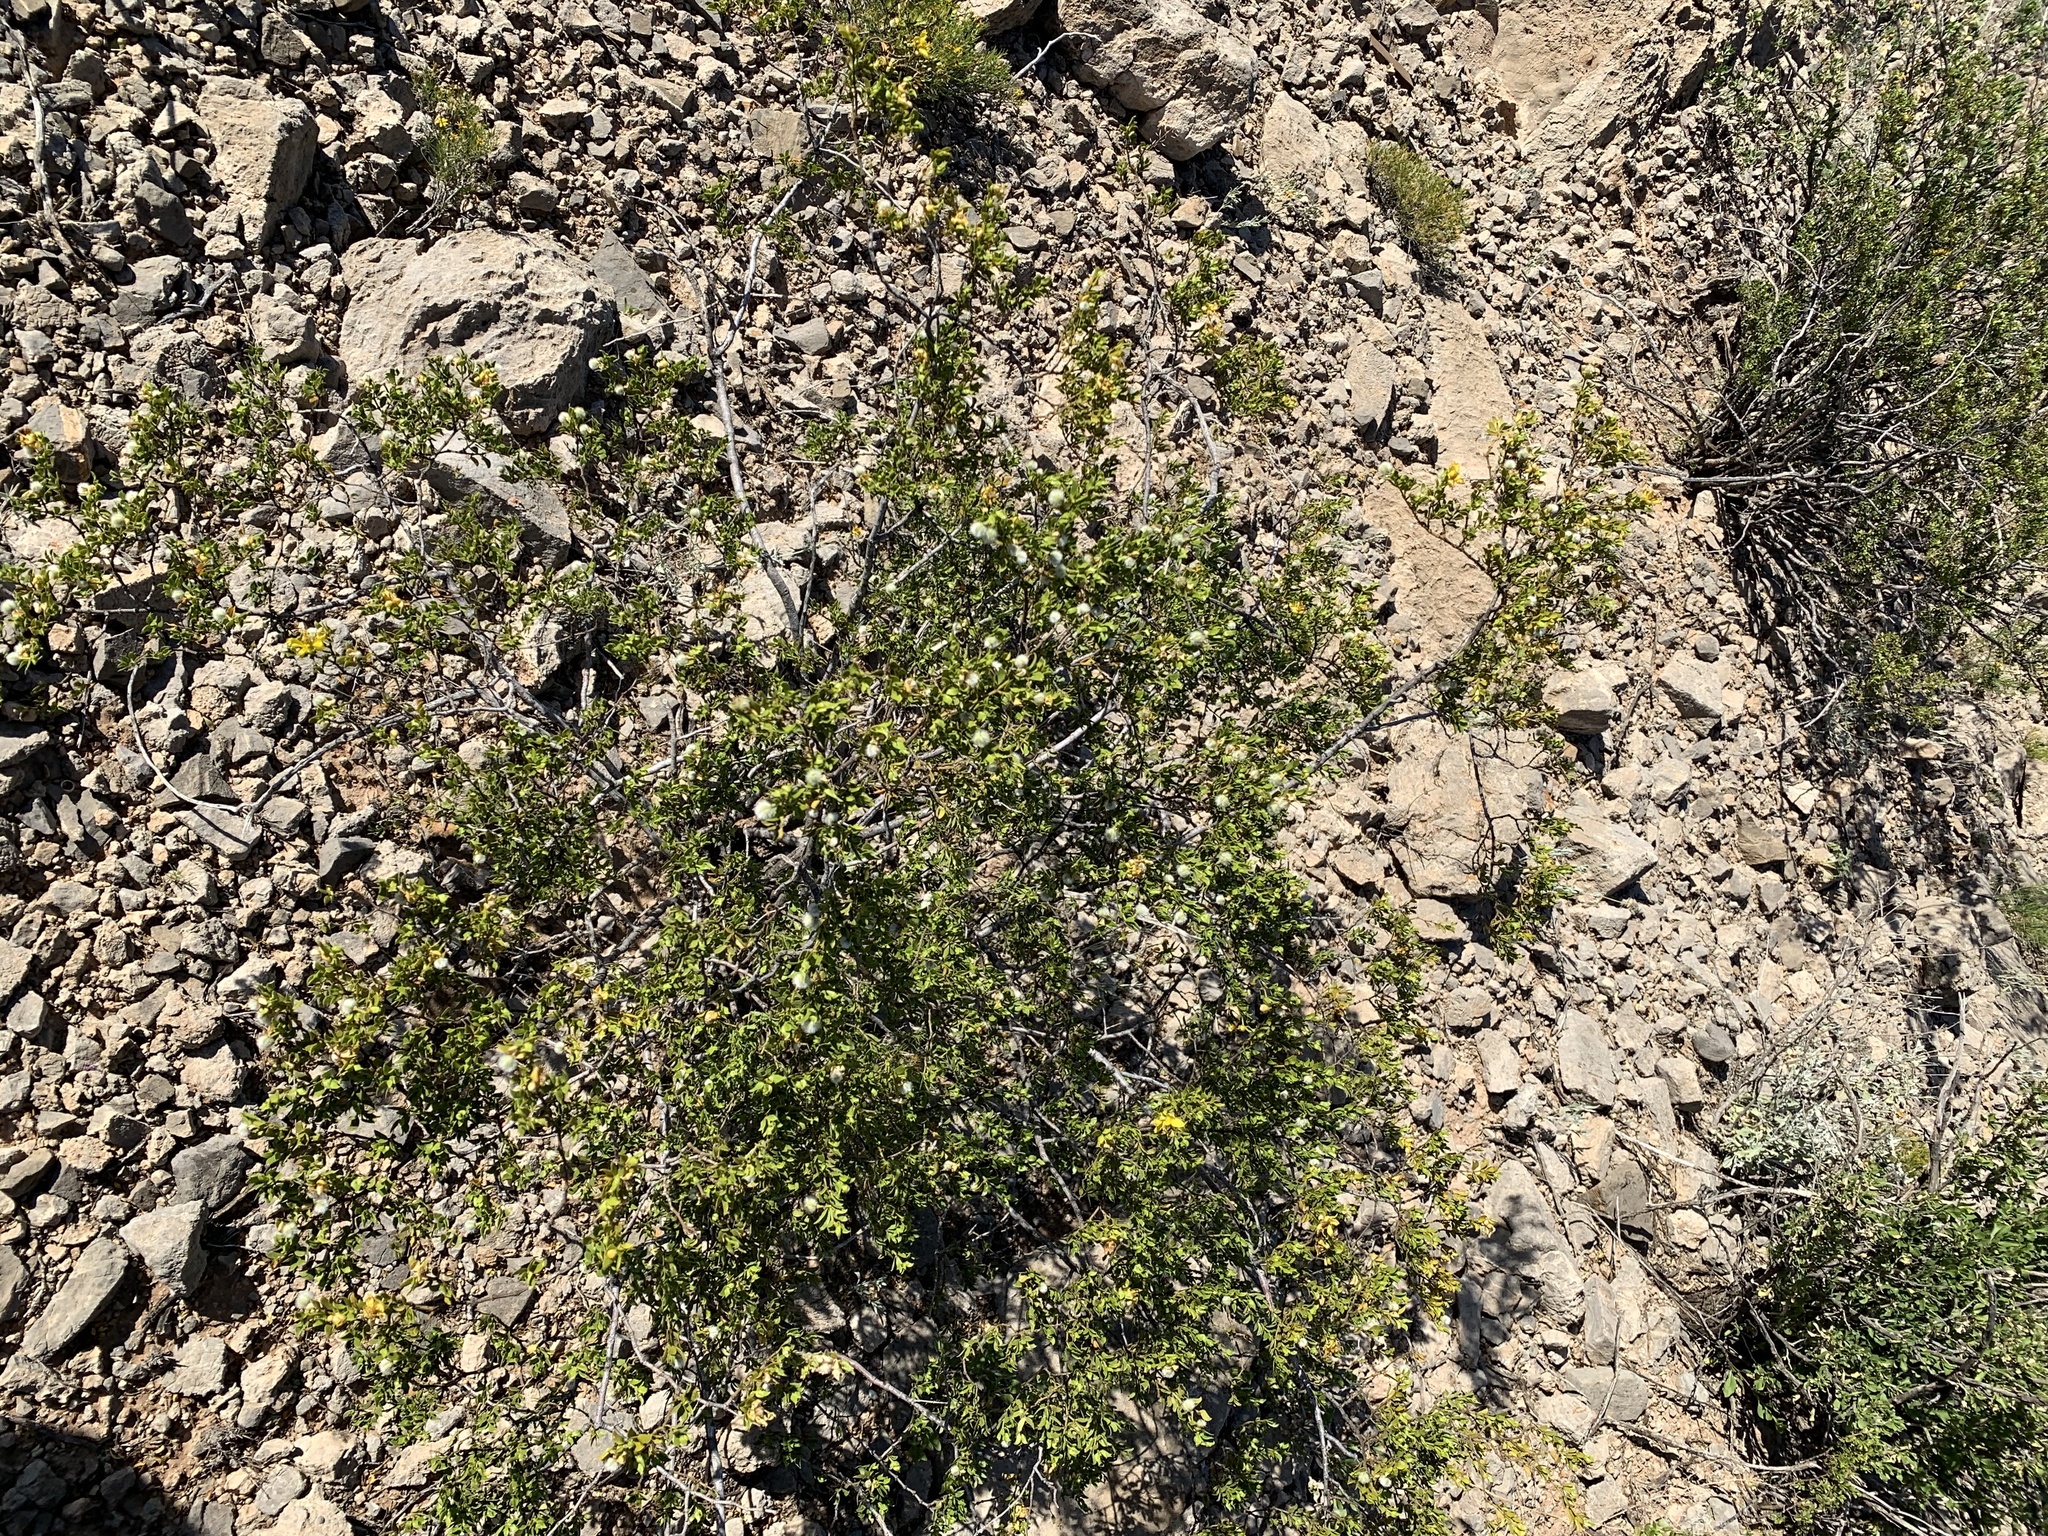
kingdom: Plantae
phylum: Tracheophyta
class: Magnoliopsida
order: Zygophyllales
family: Zygophyllaceae
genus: Larrea
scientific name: Larrea tridentata
